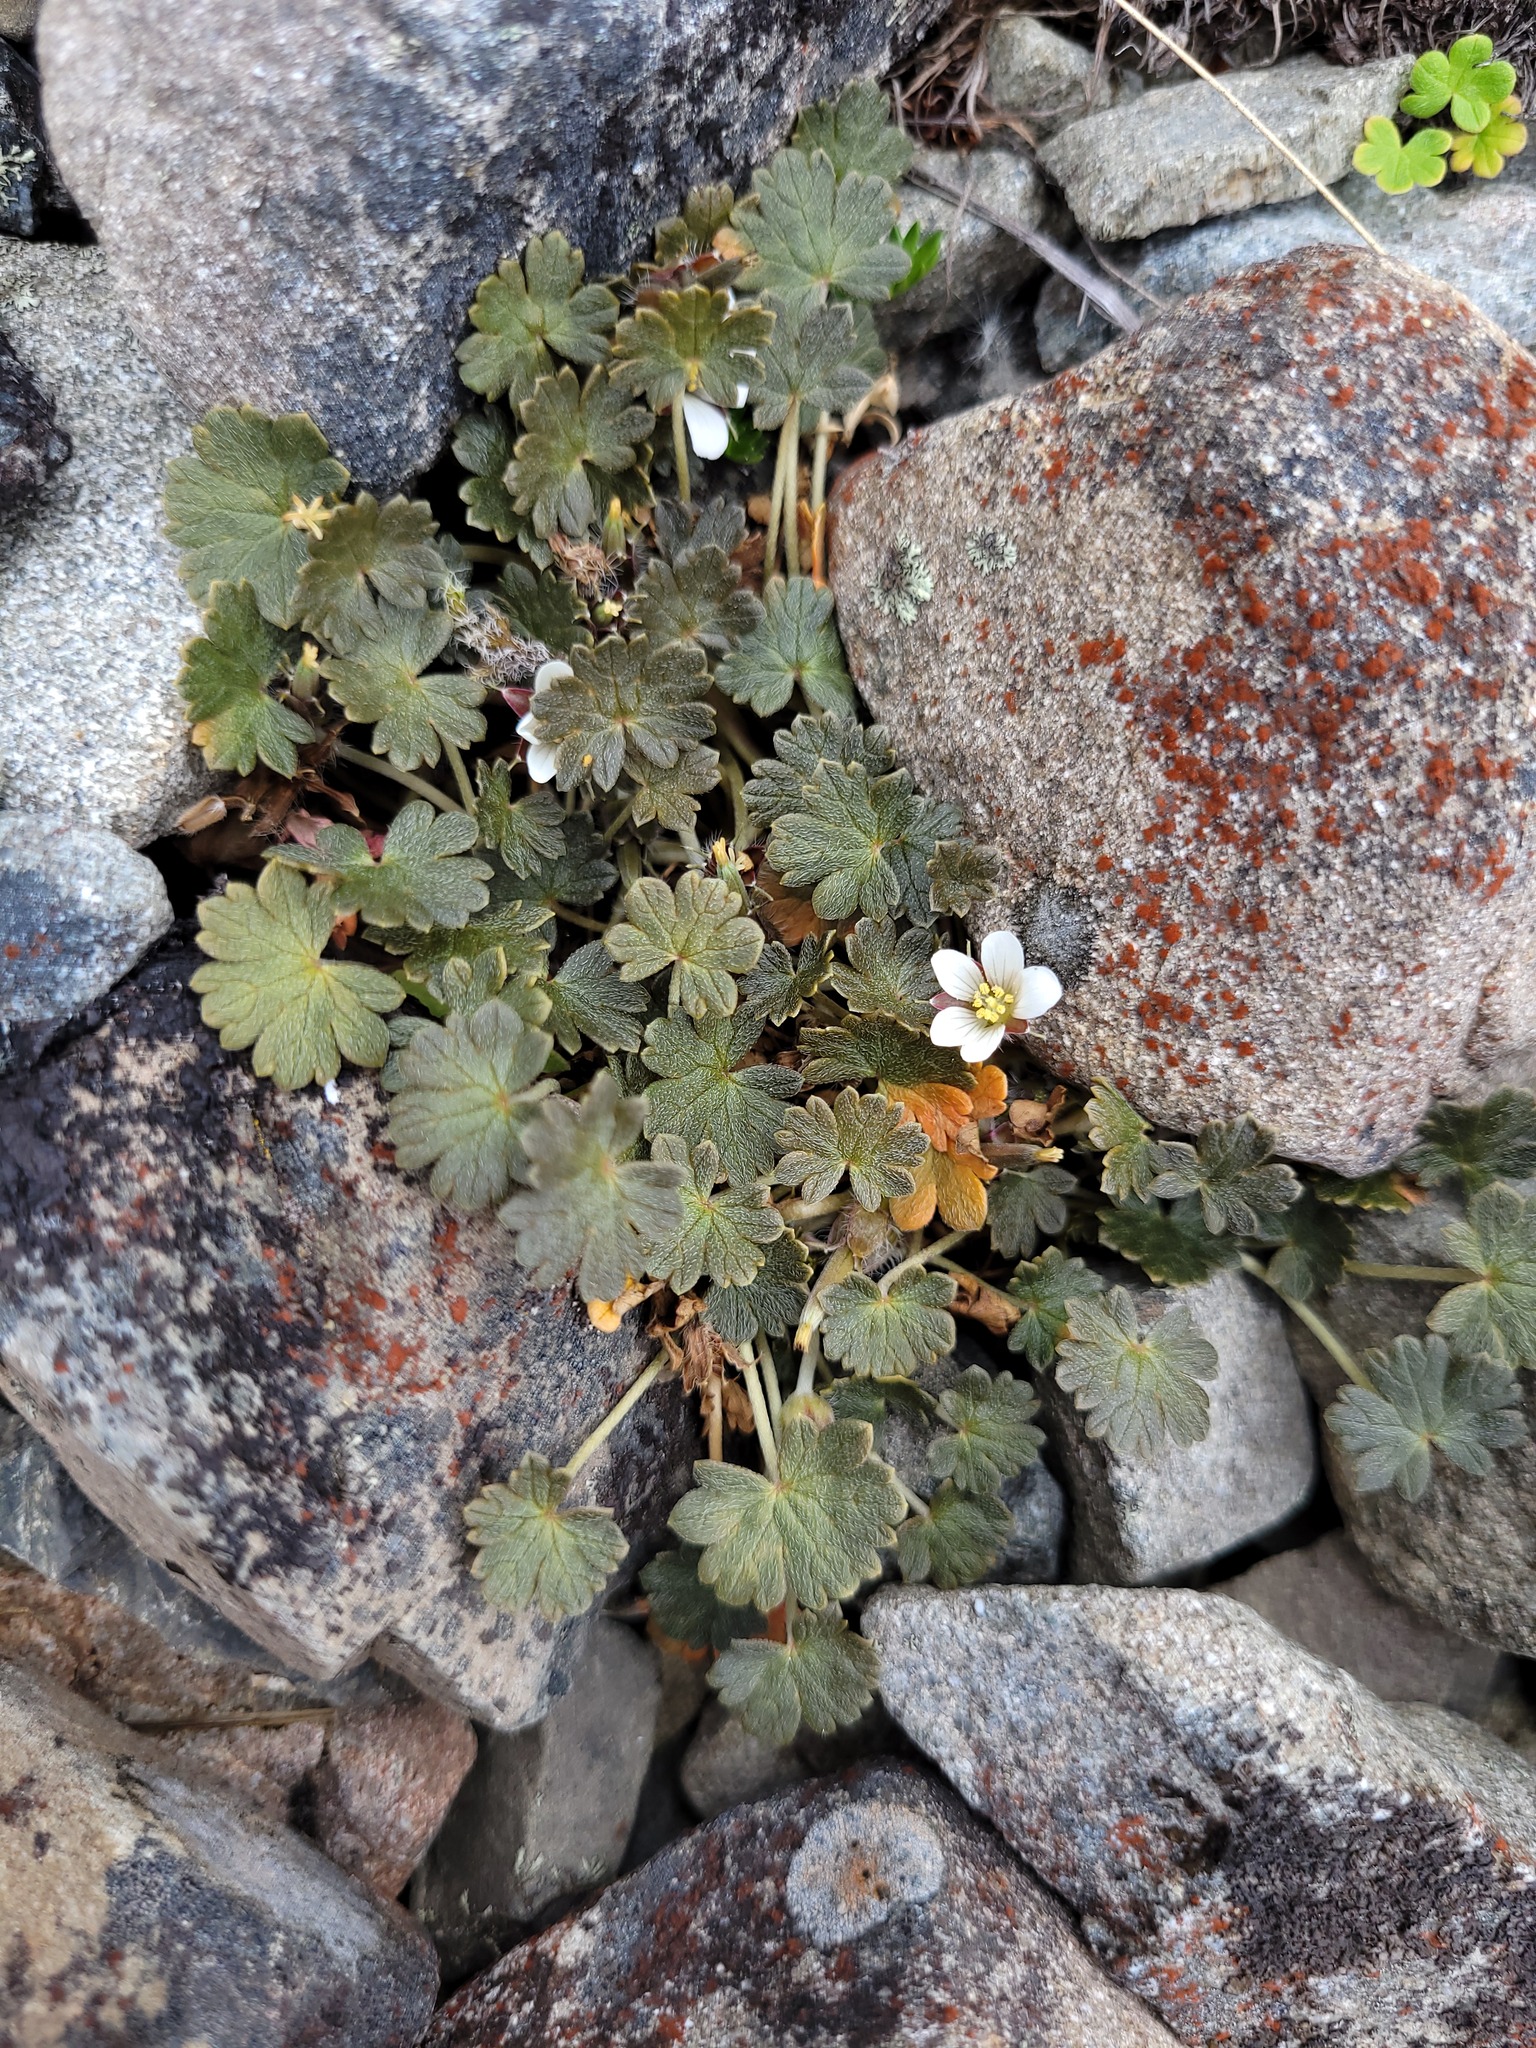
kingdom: Plantae
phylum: Tracheophyta
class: Magnoliopsida
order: Geraniales
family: Geraniaceae
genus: Geranium
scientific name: Geranium brevicaule
